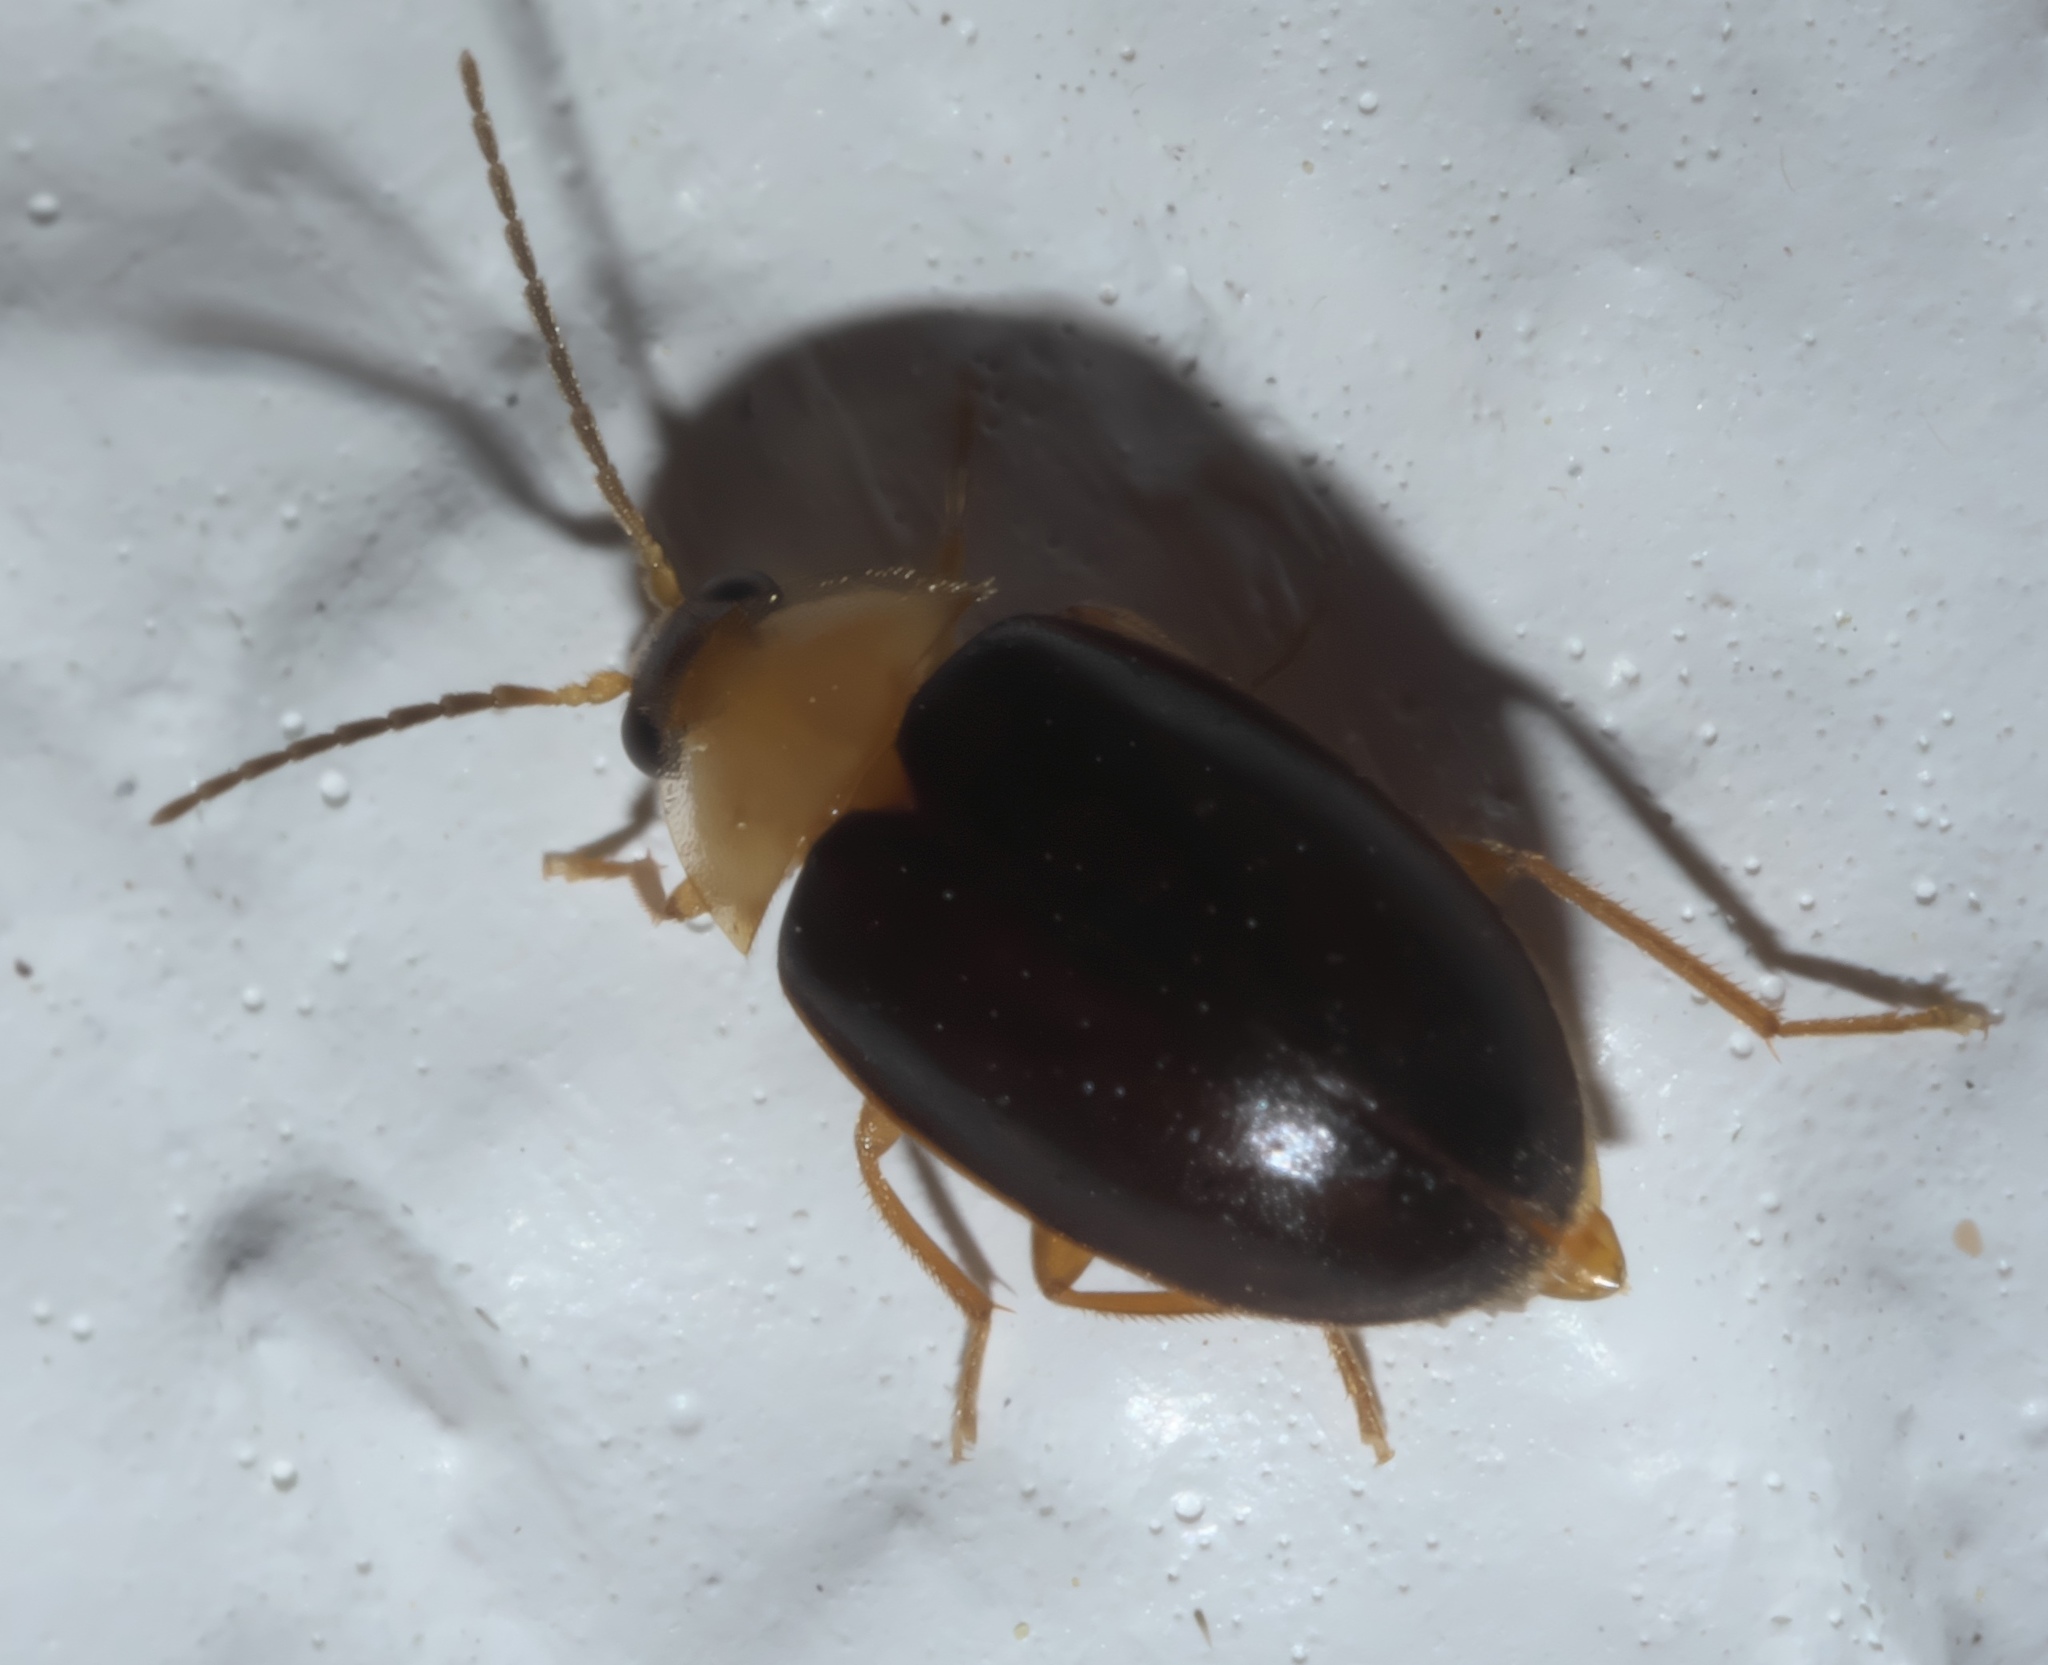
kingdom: Animalia
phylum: Arthropoda
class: Insecta
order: Coleoptera
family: Scirtidae
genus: Sacodes
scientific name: Sacodes pulchella
